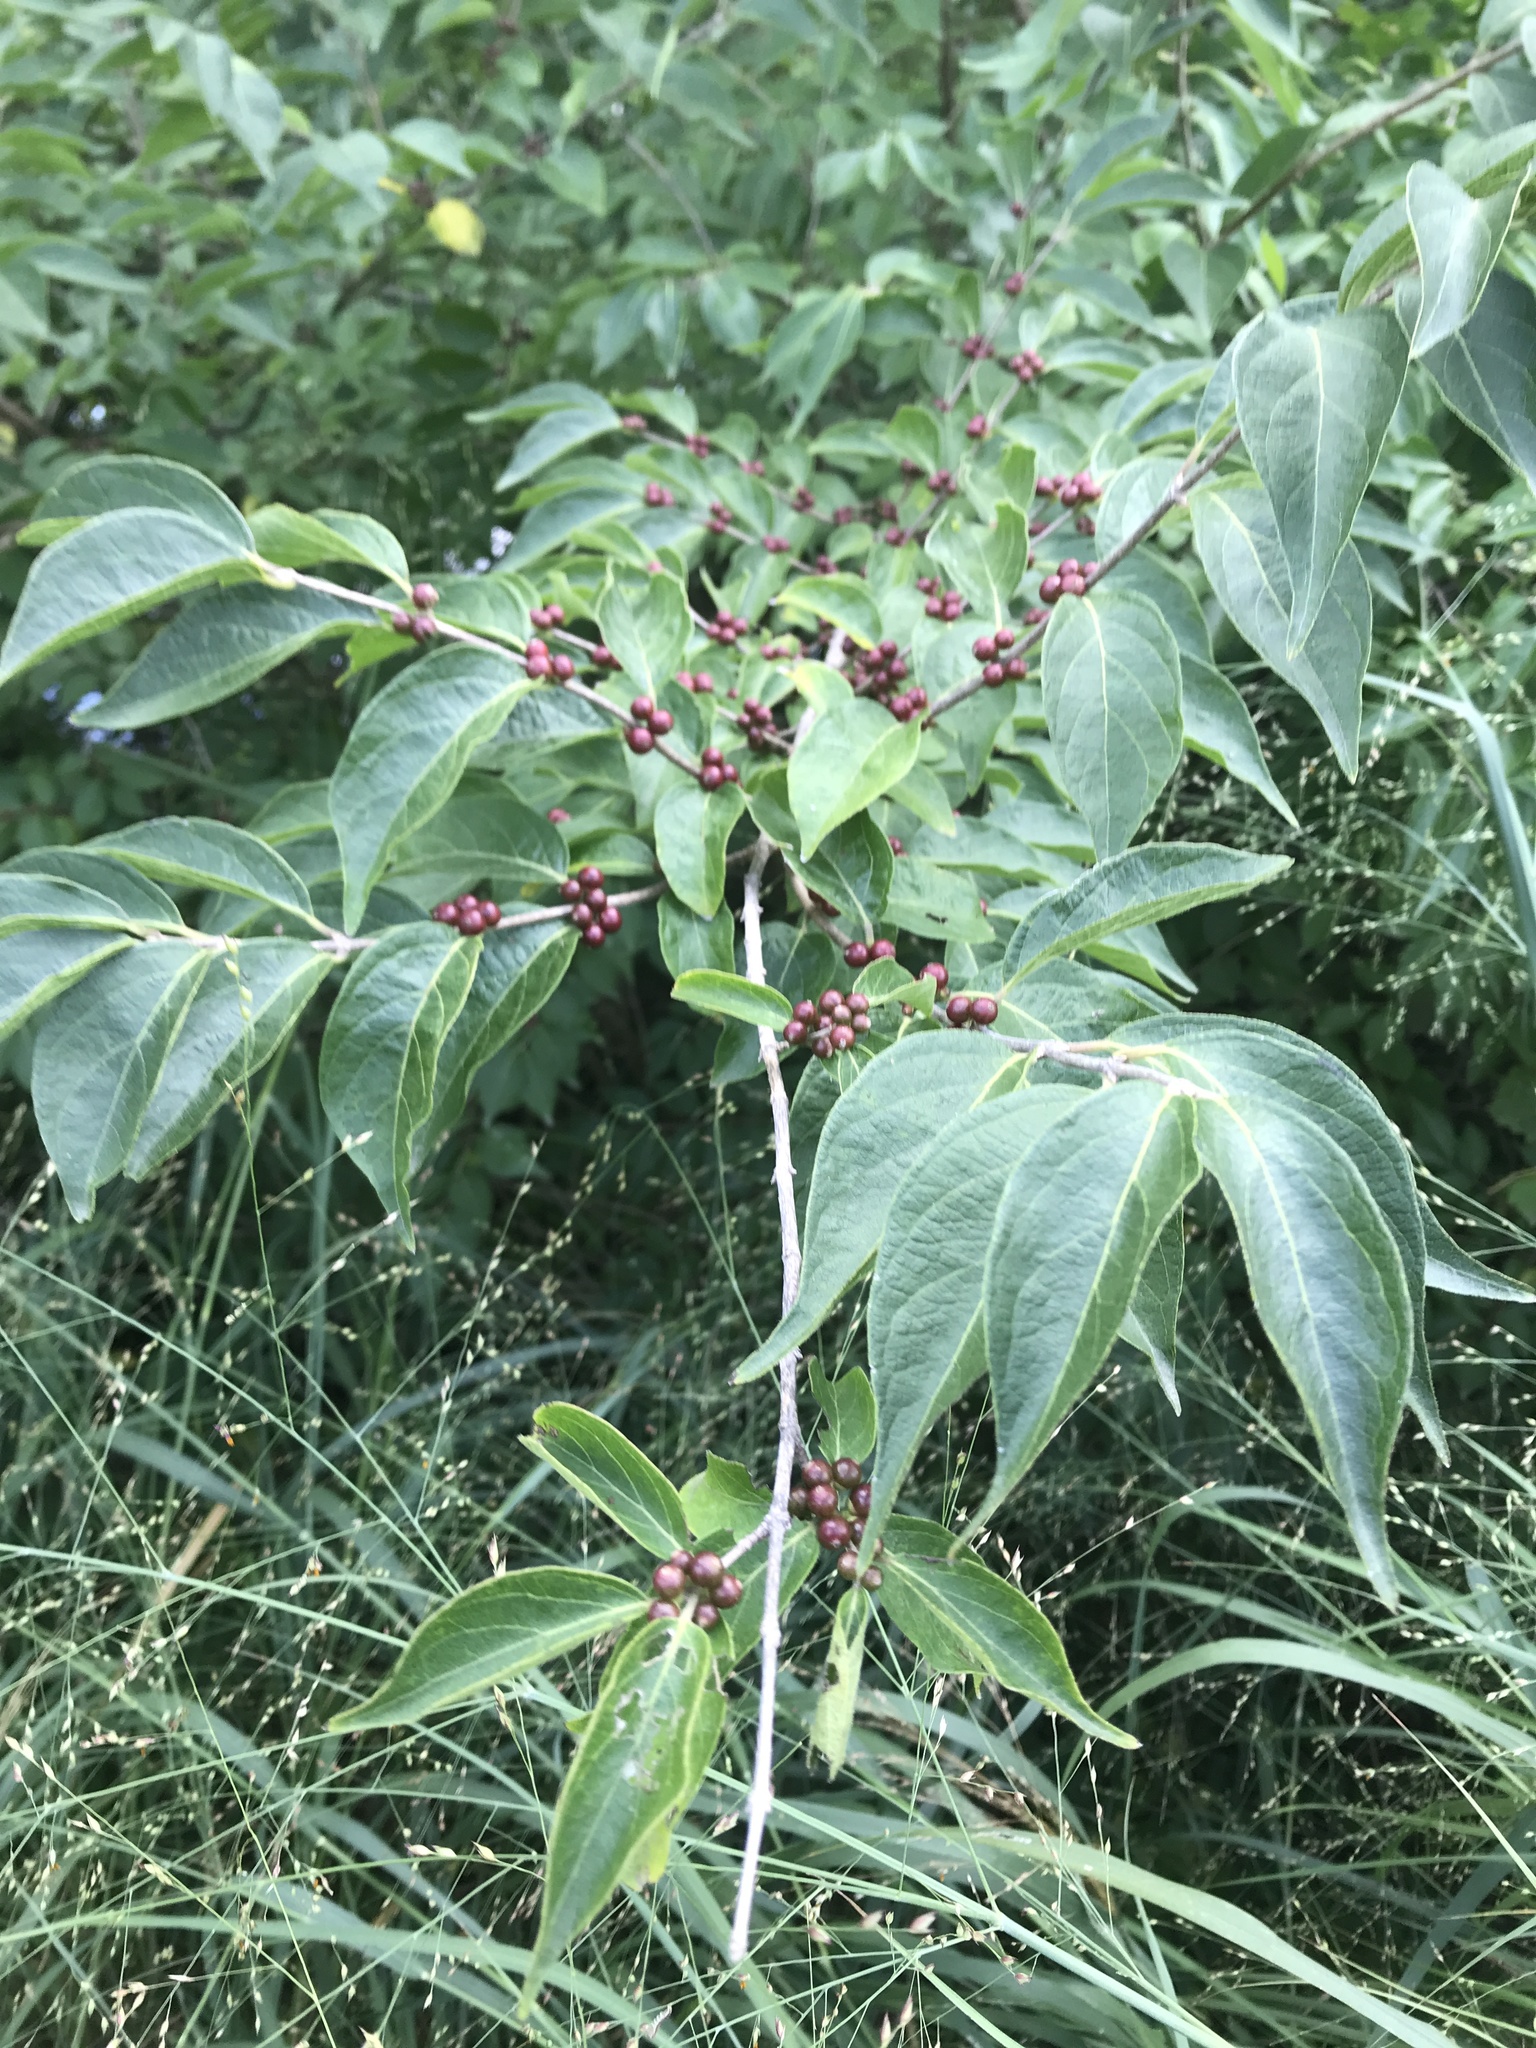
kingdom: Plantae
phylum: Tracheophyta
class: Magnoliopsida
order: Dipsacales
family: Caprifoliaceae
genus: Lonicera
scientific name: Lonicera maackii
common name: Amur honeysuckle
